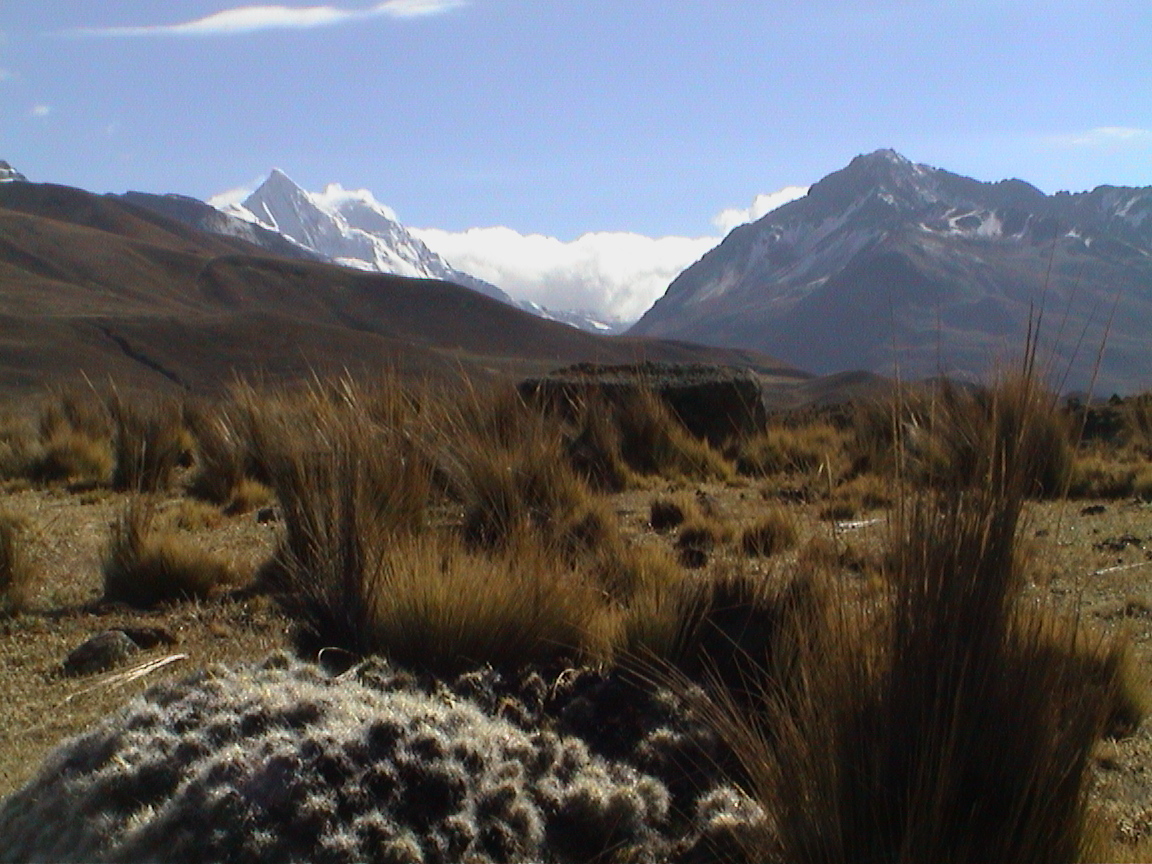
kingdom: Plantae
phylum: Tracheophyta
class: Magnoliopsida
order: Caryophyllales
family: Cactaceae
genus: Austrocylindropuntia
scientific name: Austrocylindropuntia floccosa
